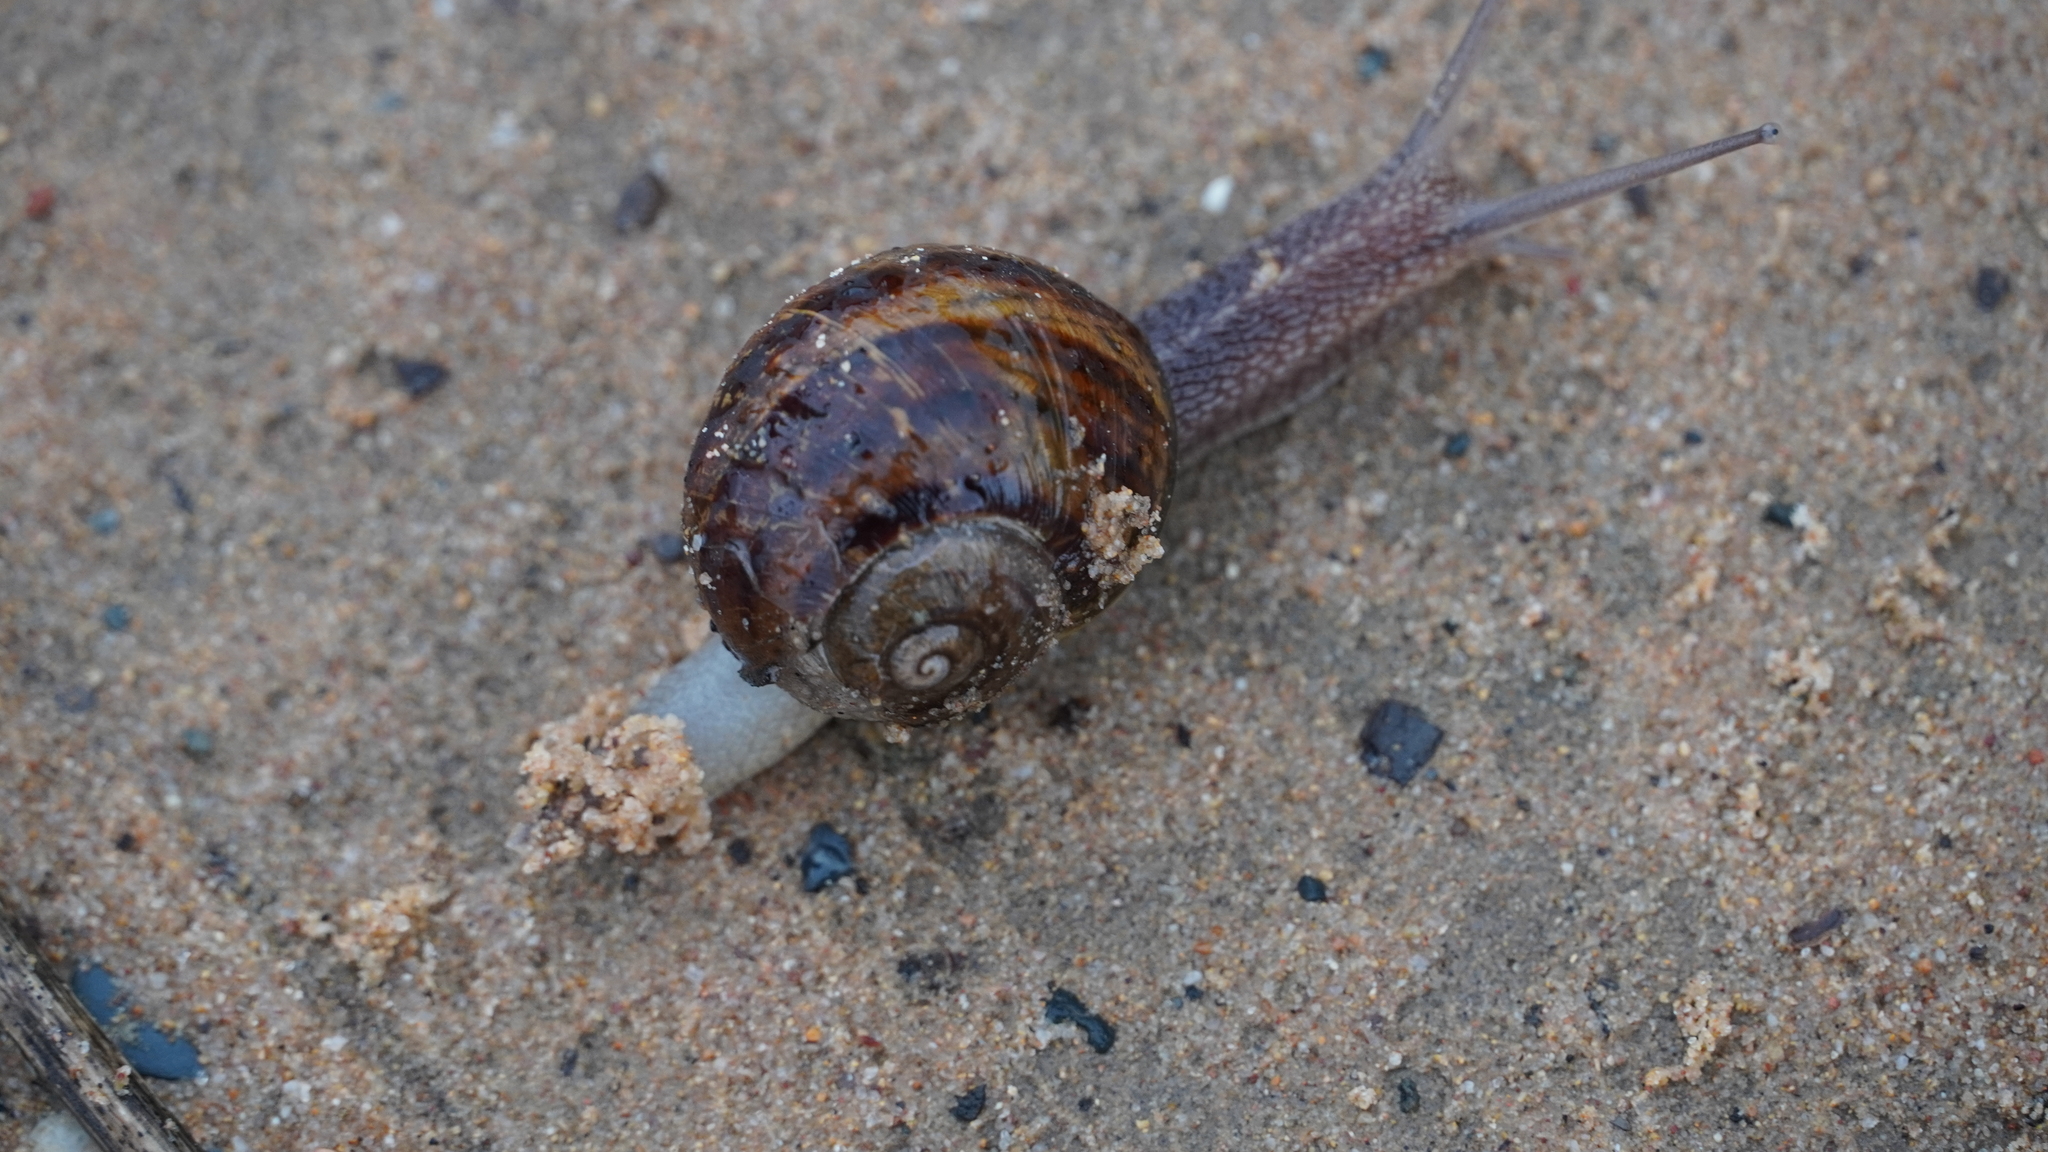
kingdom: Animalia
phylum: Mollusca
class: Gastropoda
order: Stylommatophora
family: Helicidae
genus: Cornu
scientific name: Cornu aspersum
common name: Brown garden snail
